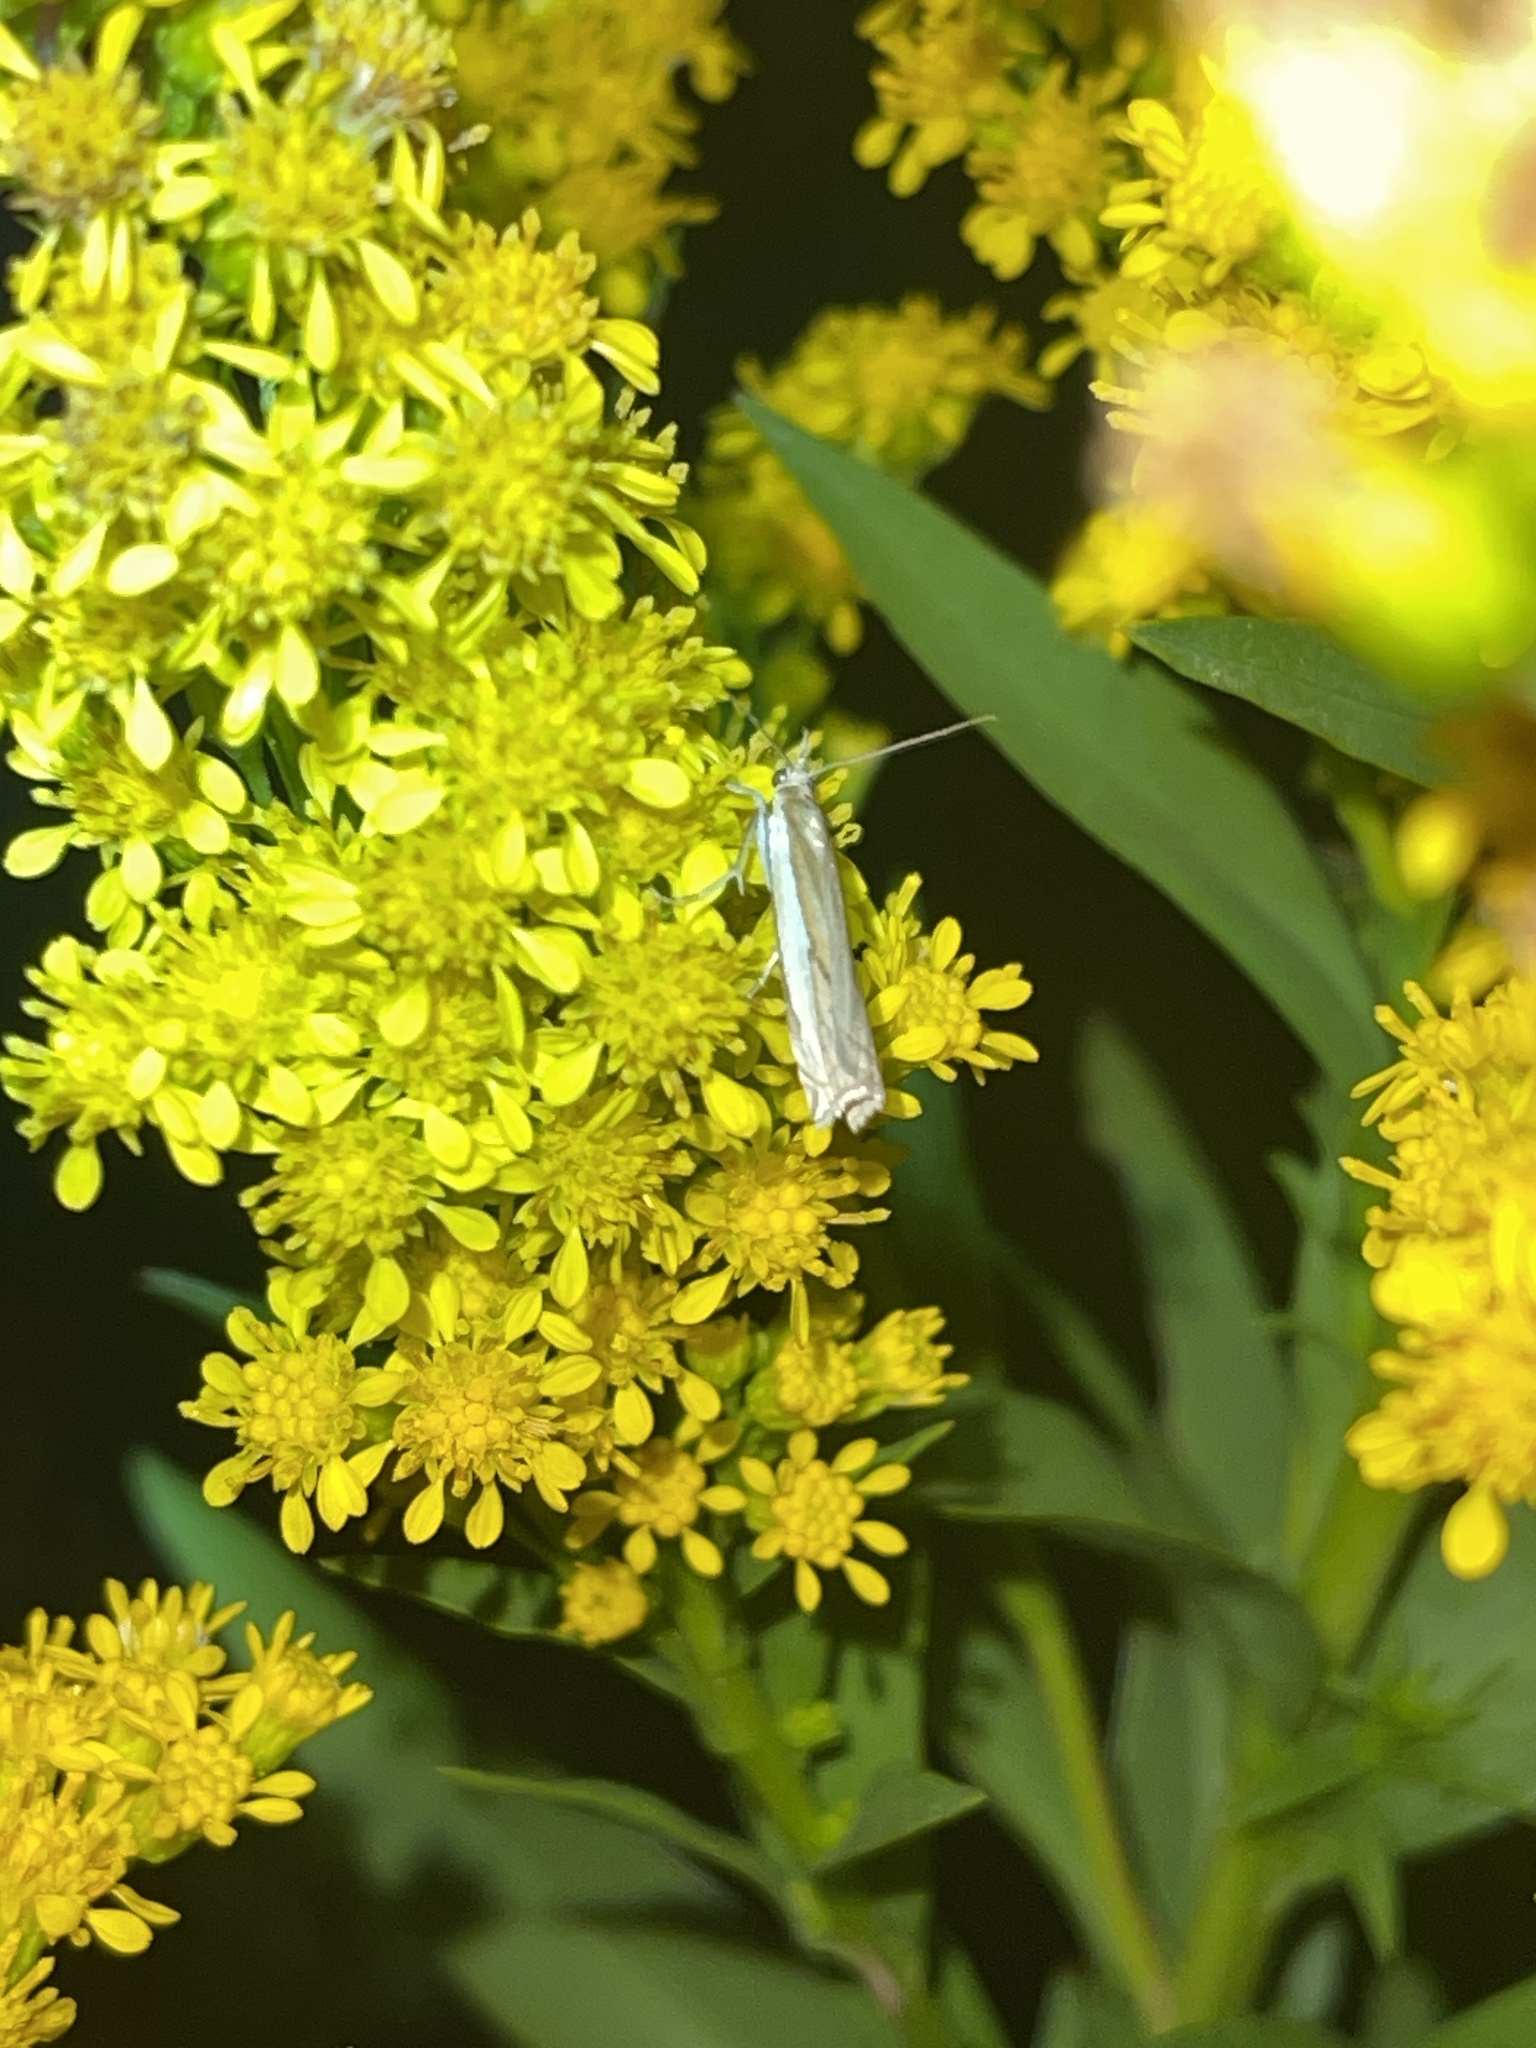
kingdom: Animalia
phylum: Arthropoda
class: Insecta
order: Lepidoptera
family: Crambidae
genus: Crambus
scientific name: Crambus praefectellus
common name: Common grass-veneer
